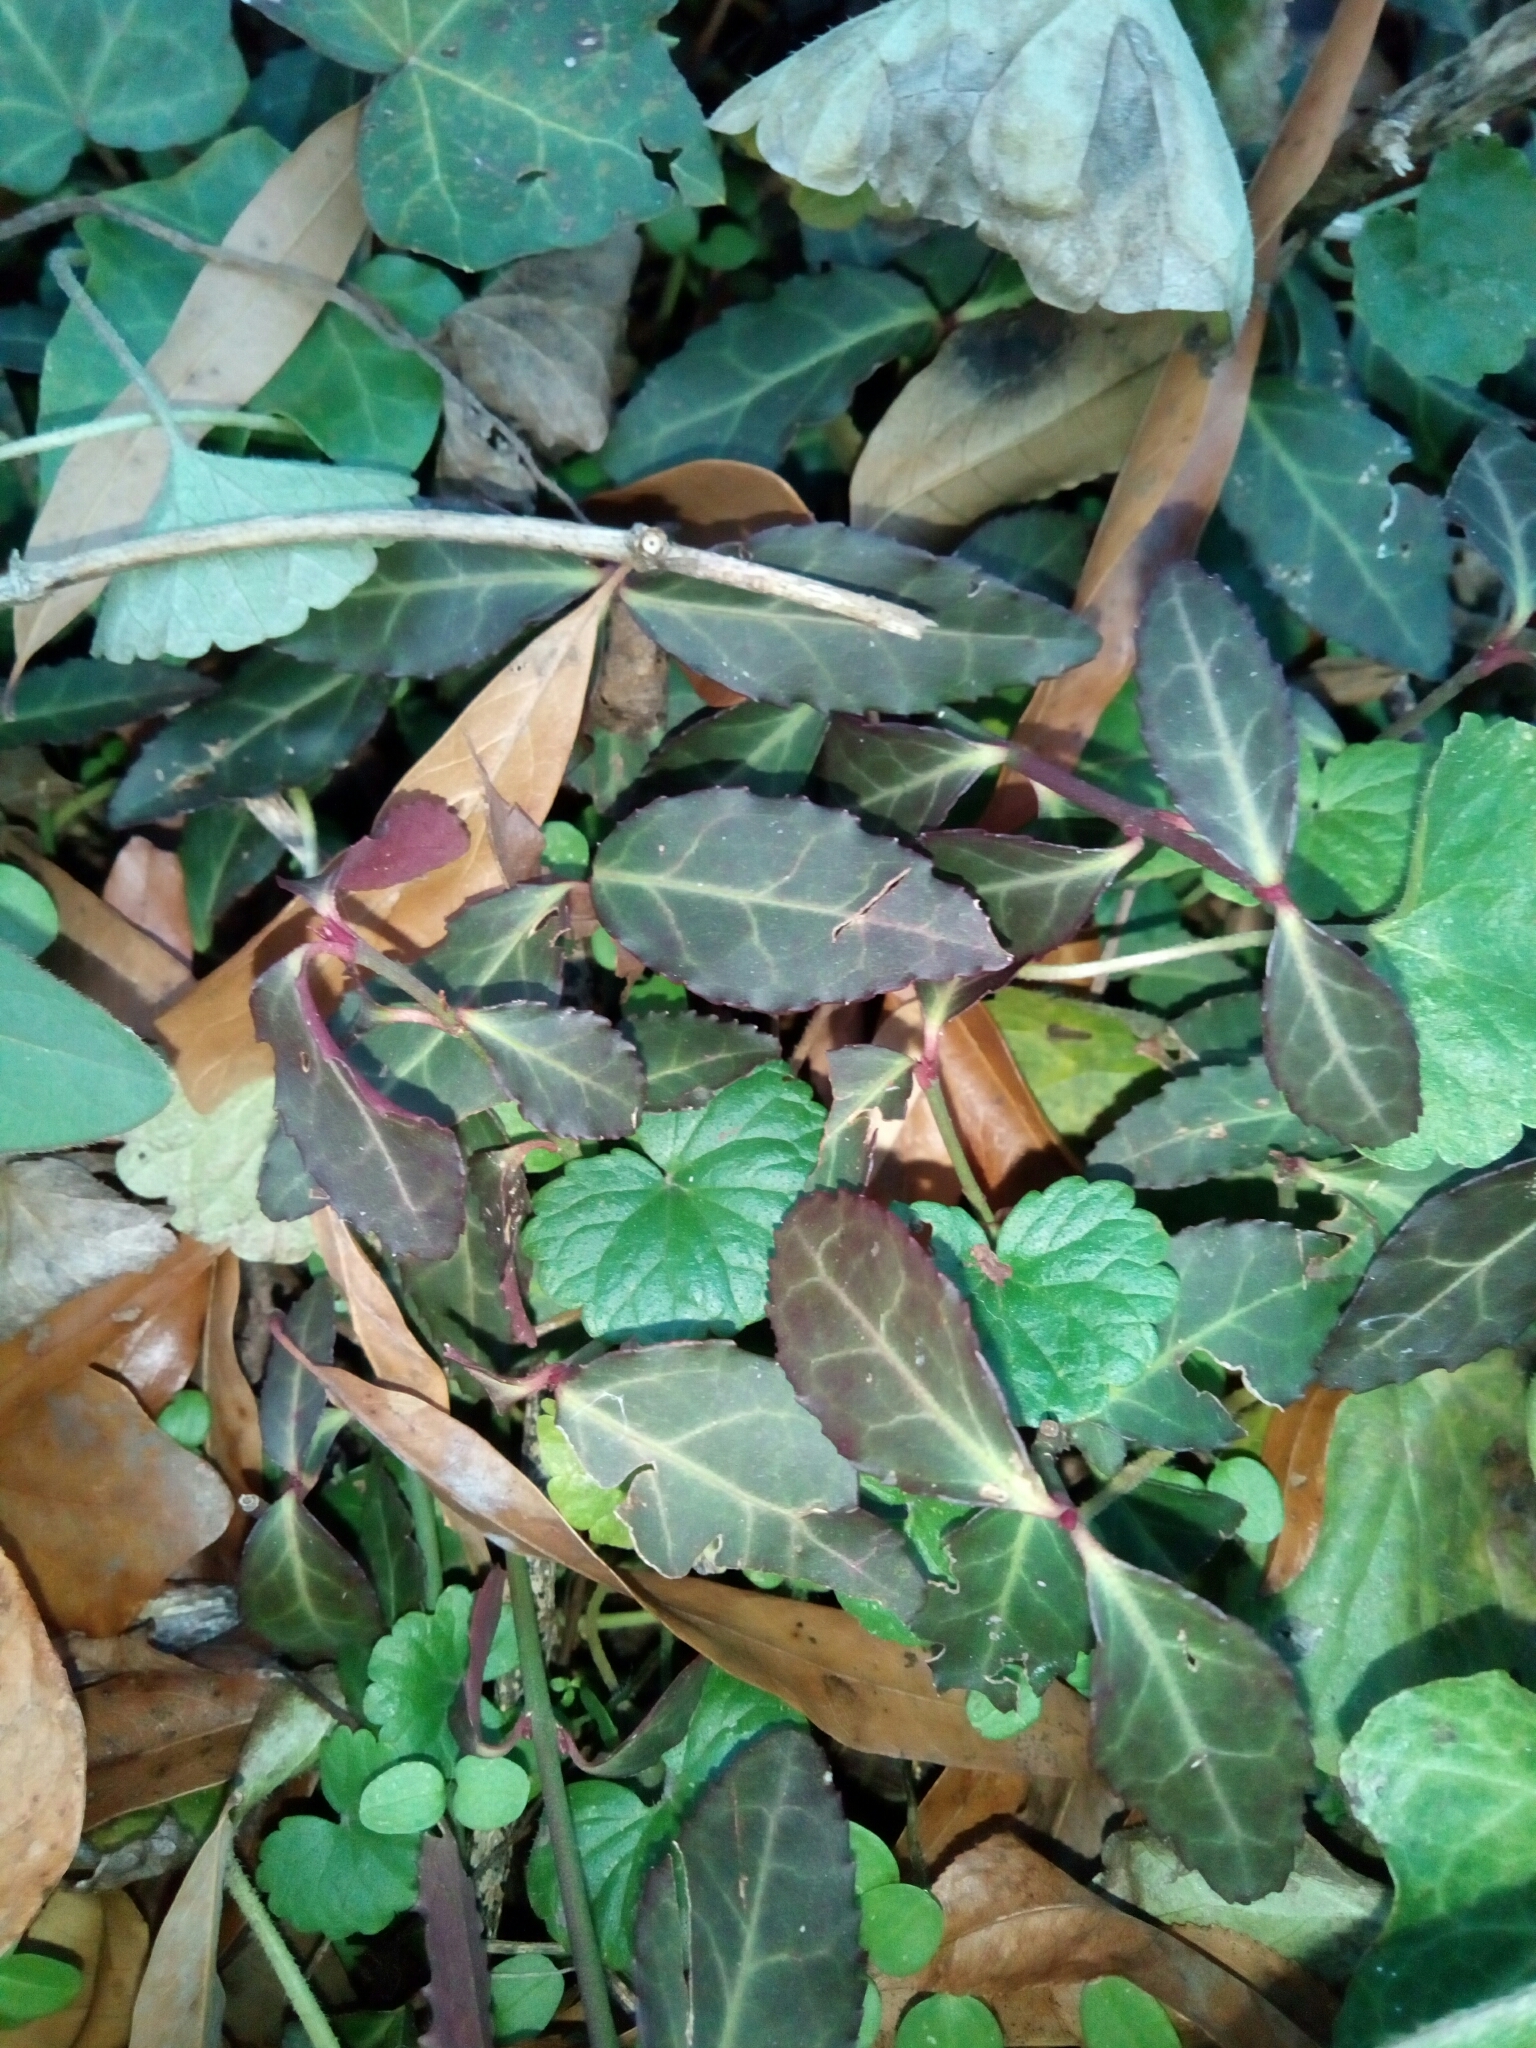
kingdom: Plantae
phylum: Tracheophyta
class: Magnoliopsida
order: Celastrales
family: Celastraceae
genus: Euonymus
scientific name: Euonymus fortunei
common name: Climbing euonymus
